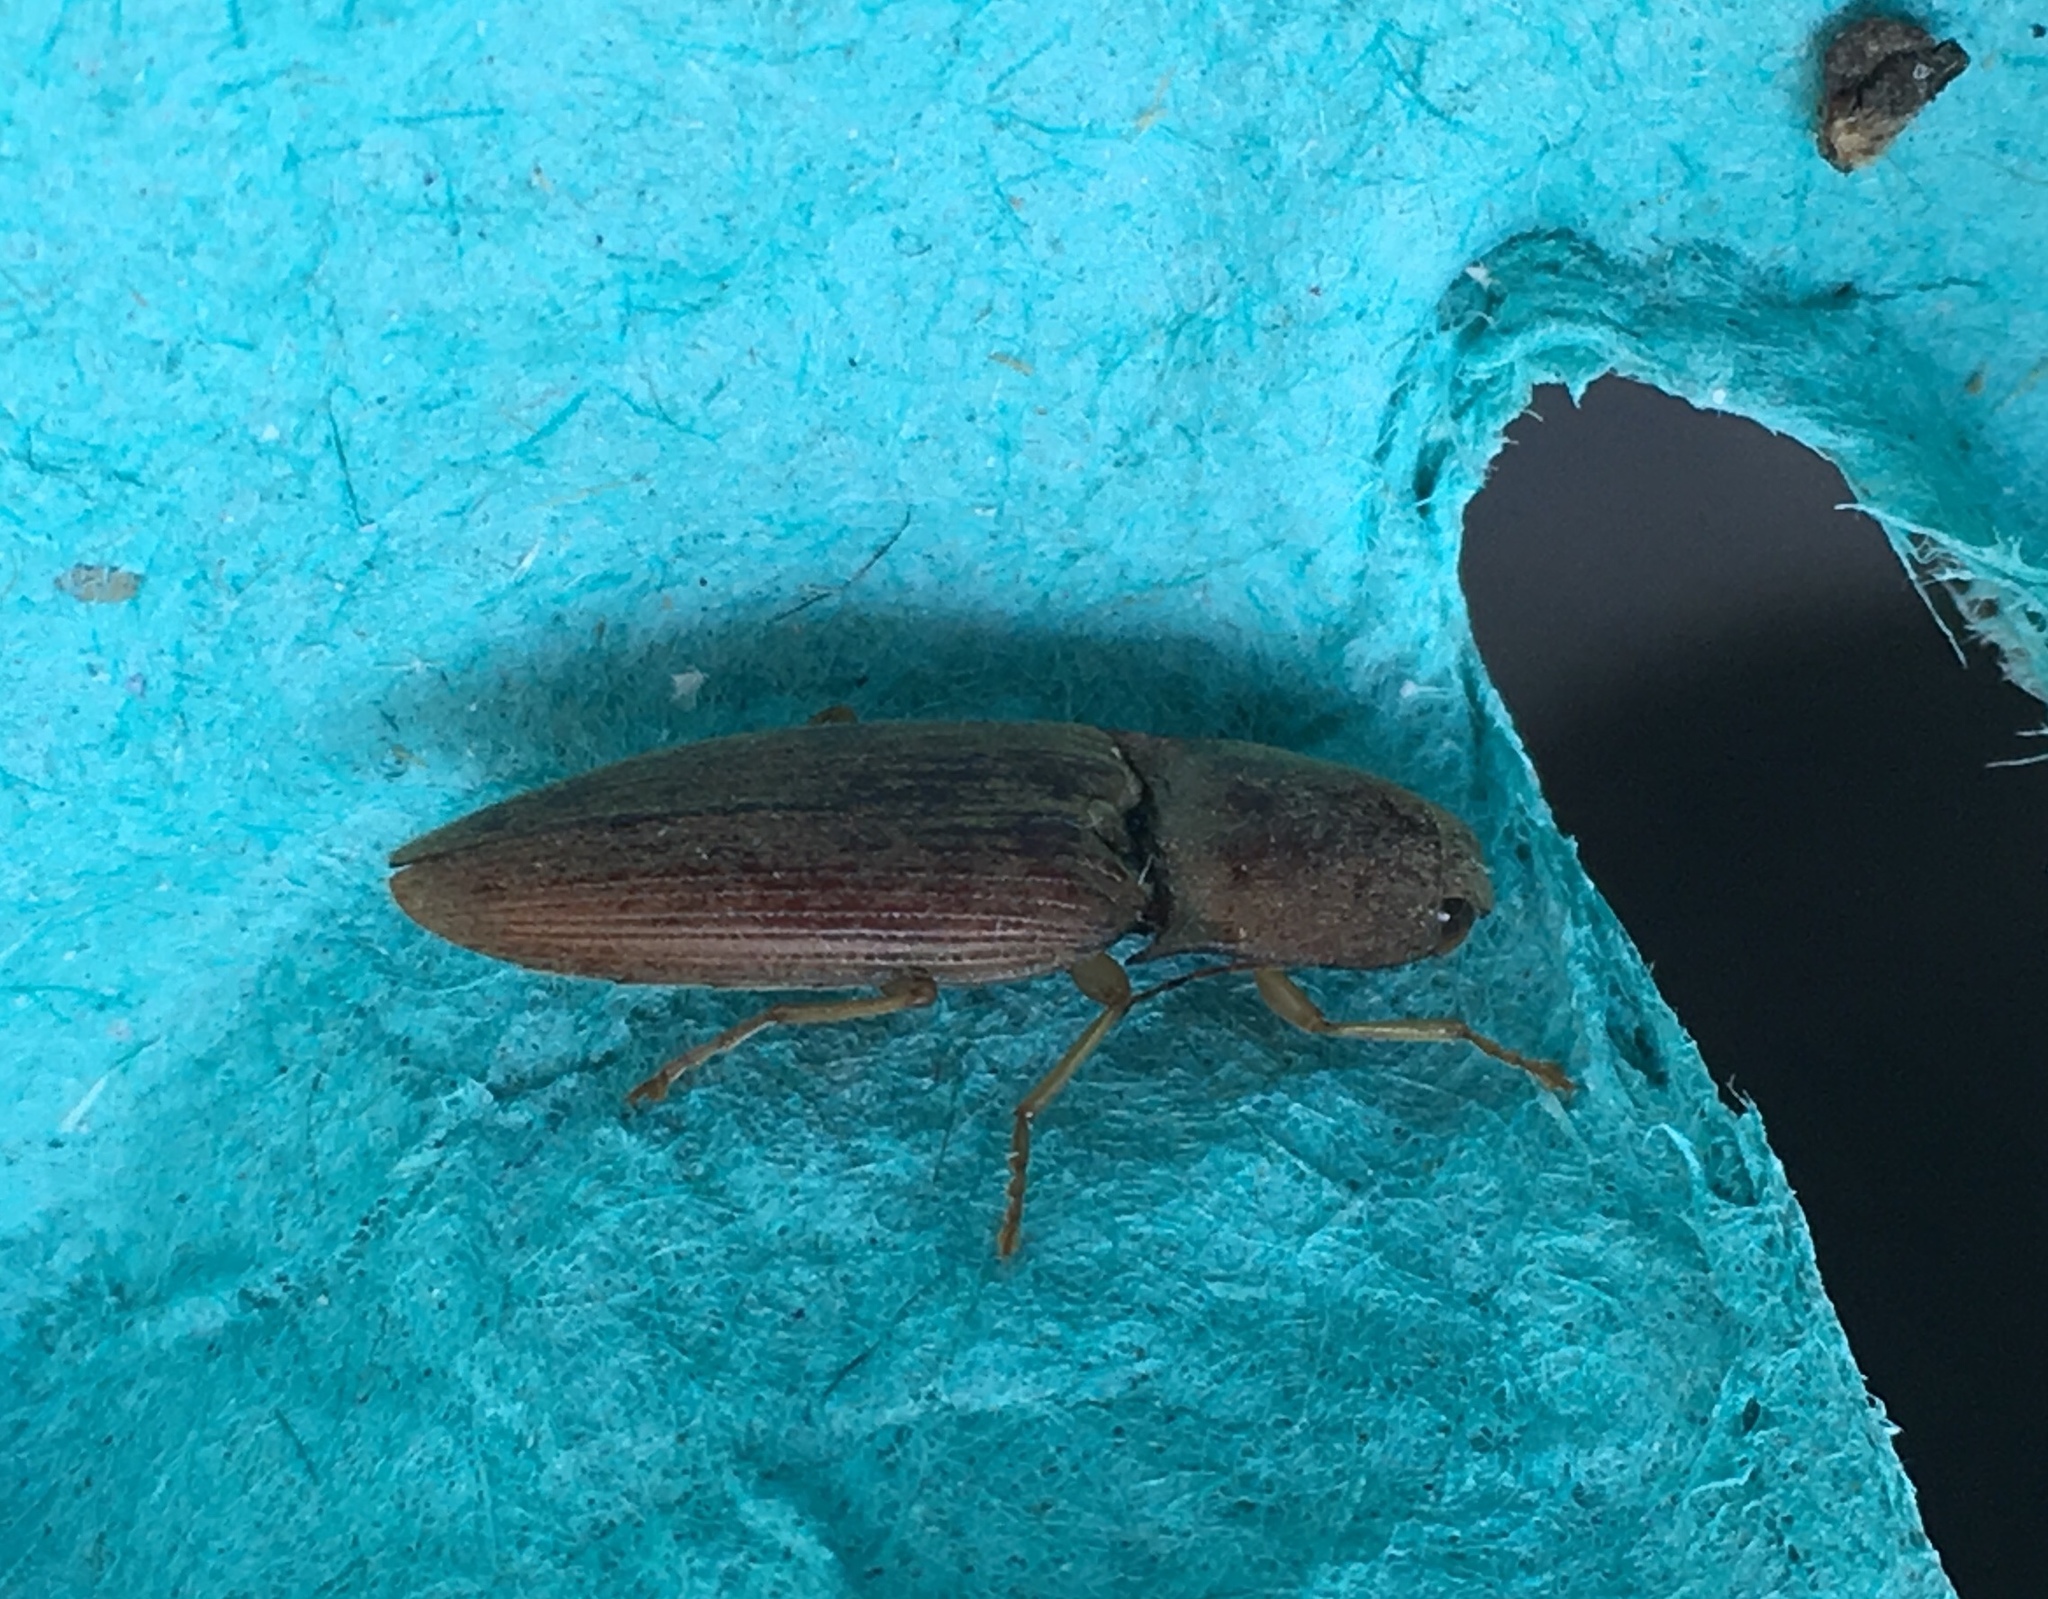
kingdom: Animalia
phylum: Arthropoda
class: Insecta
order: Coleoptera
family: Elateridae
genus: Monocrepidius
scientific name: Monocrepidius lividus
